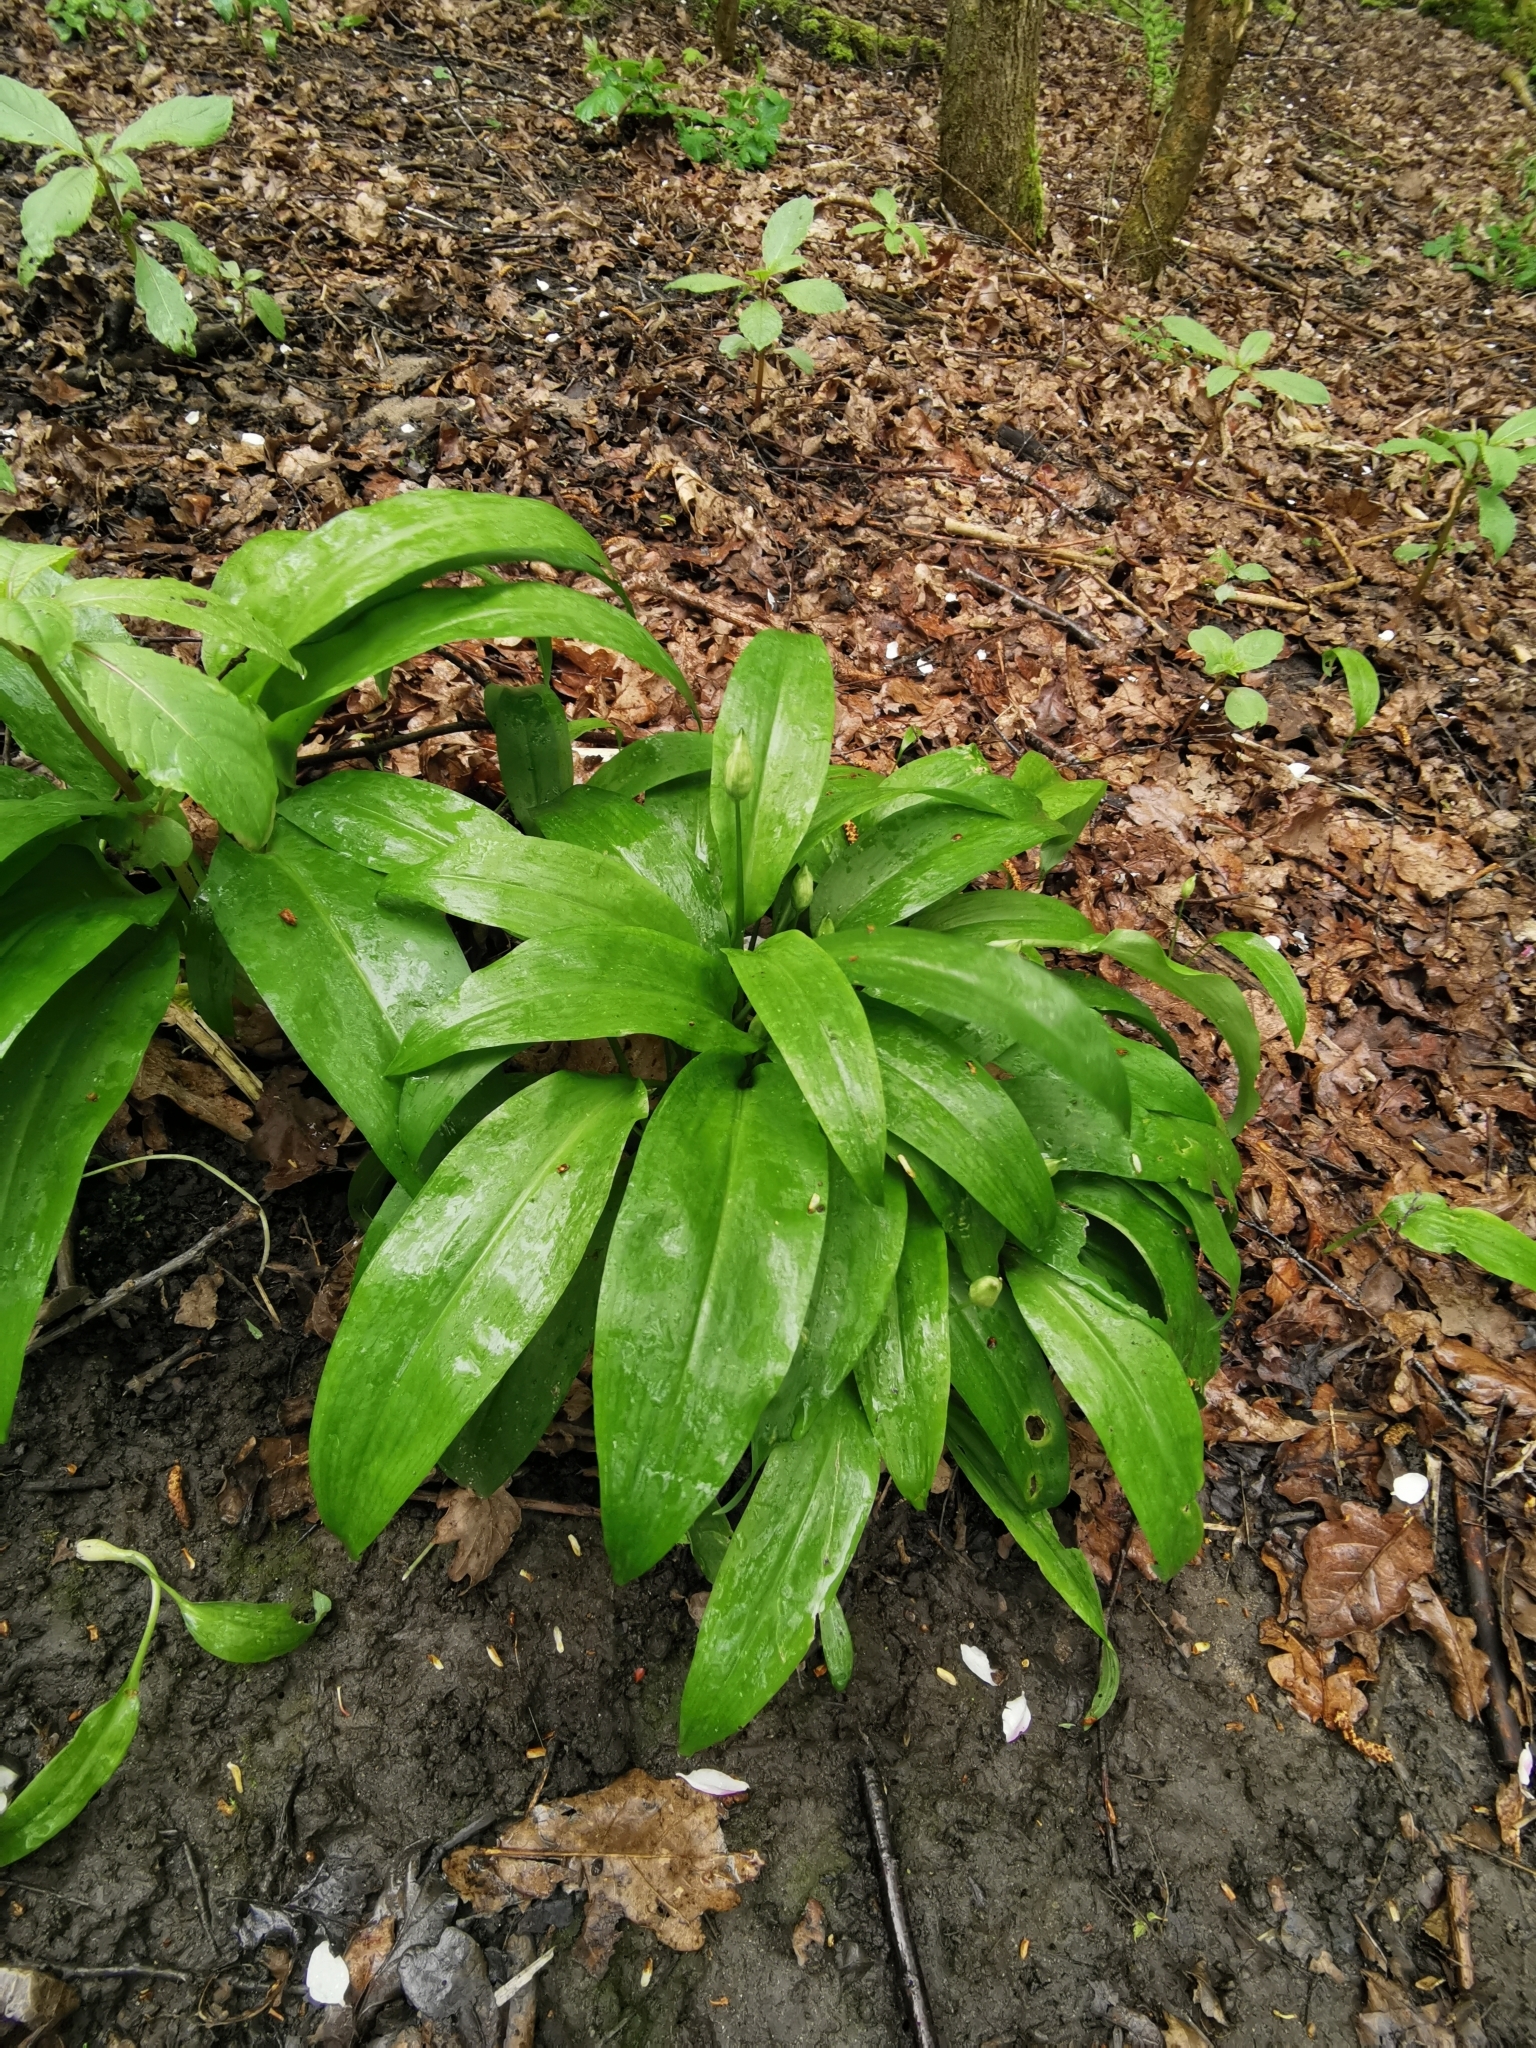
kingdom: Plantae
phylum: Tracheophyta
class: Liliopsida
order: Asparagales
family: Amaryllidaceae
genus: Allium
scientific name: Allium ursinum
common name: Ramsons
